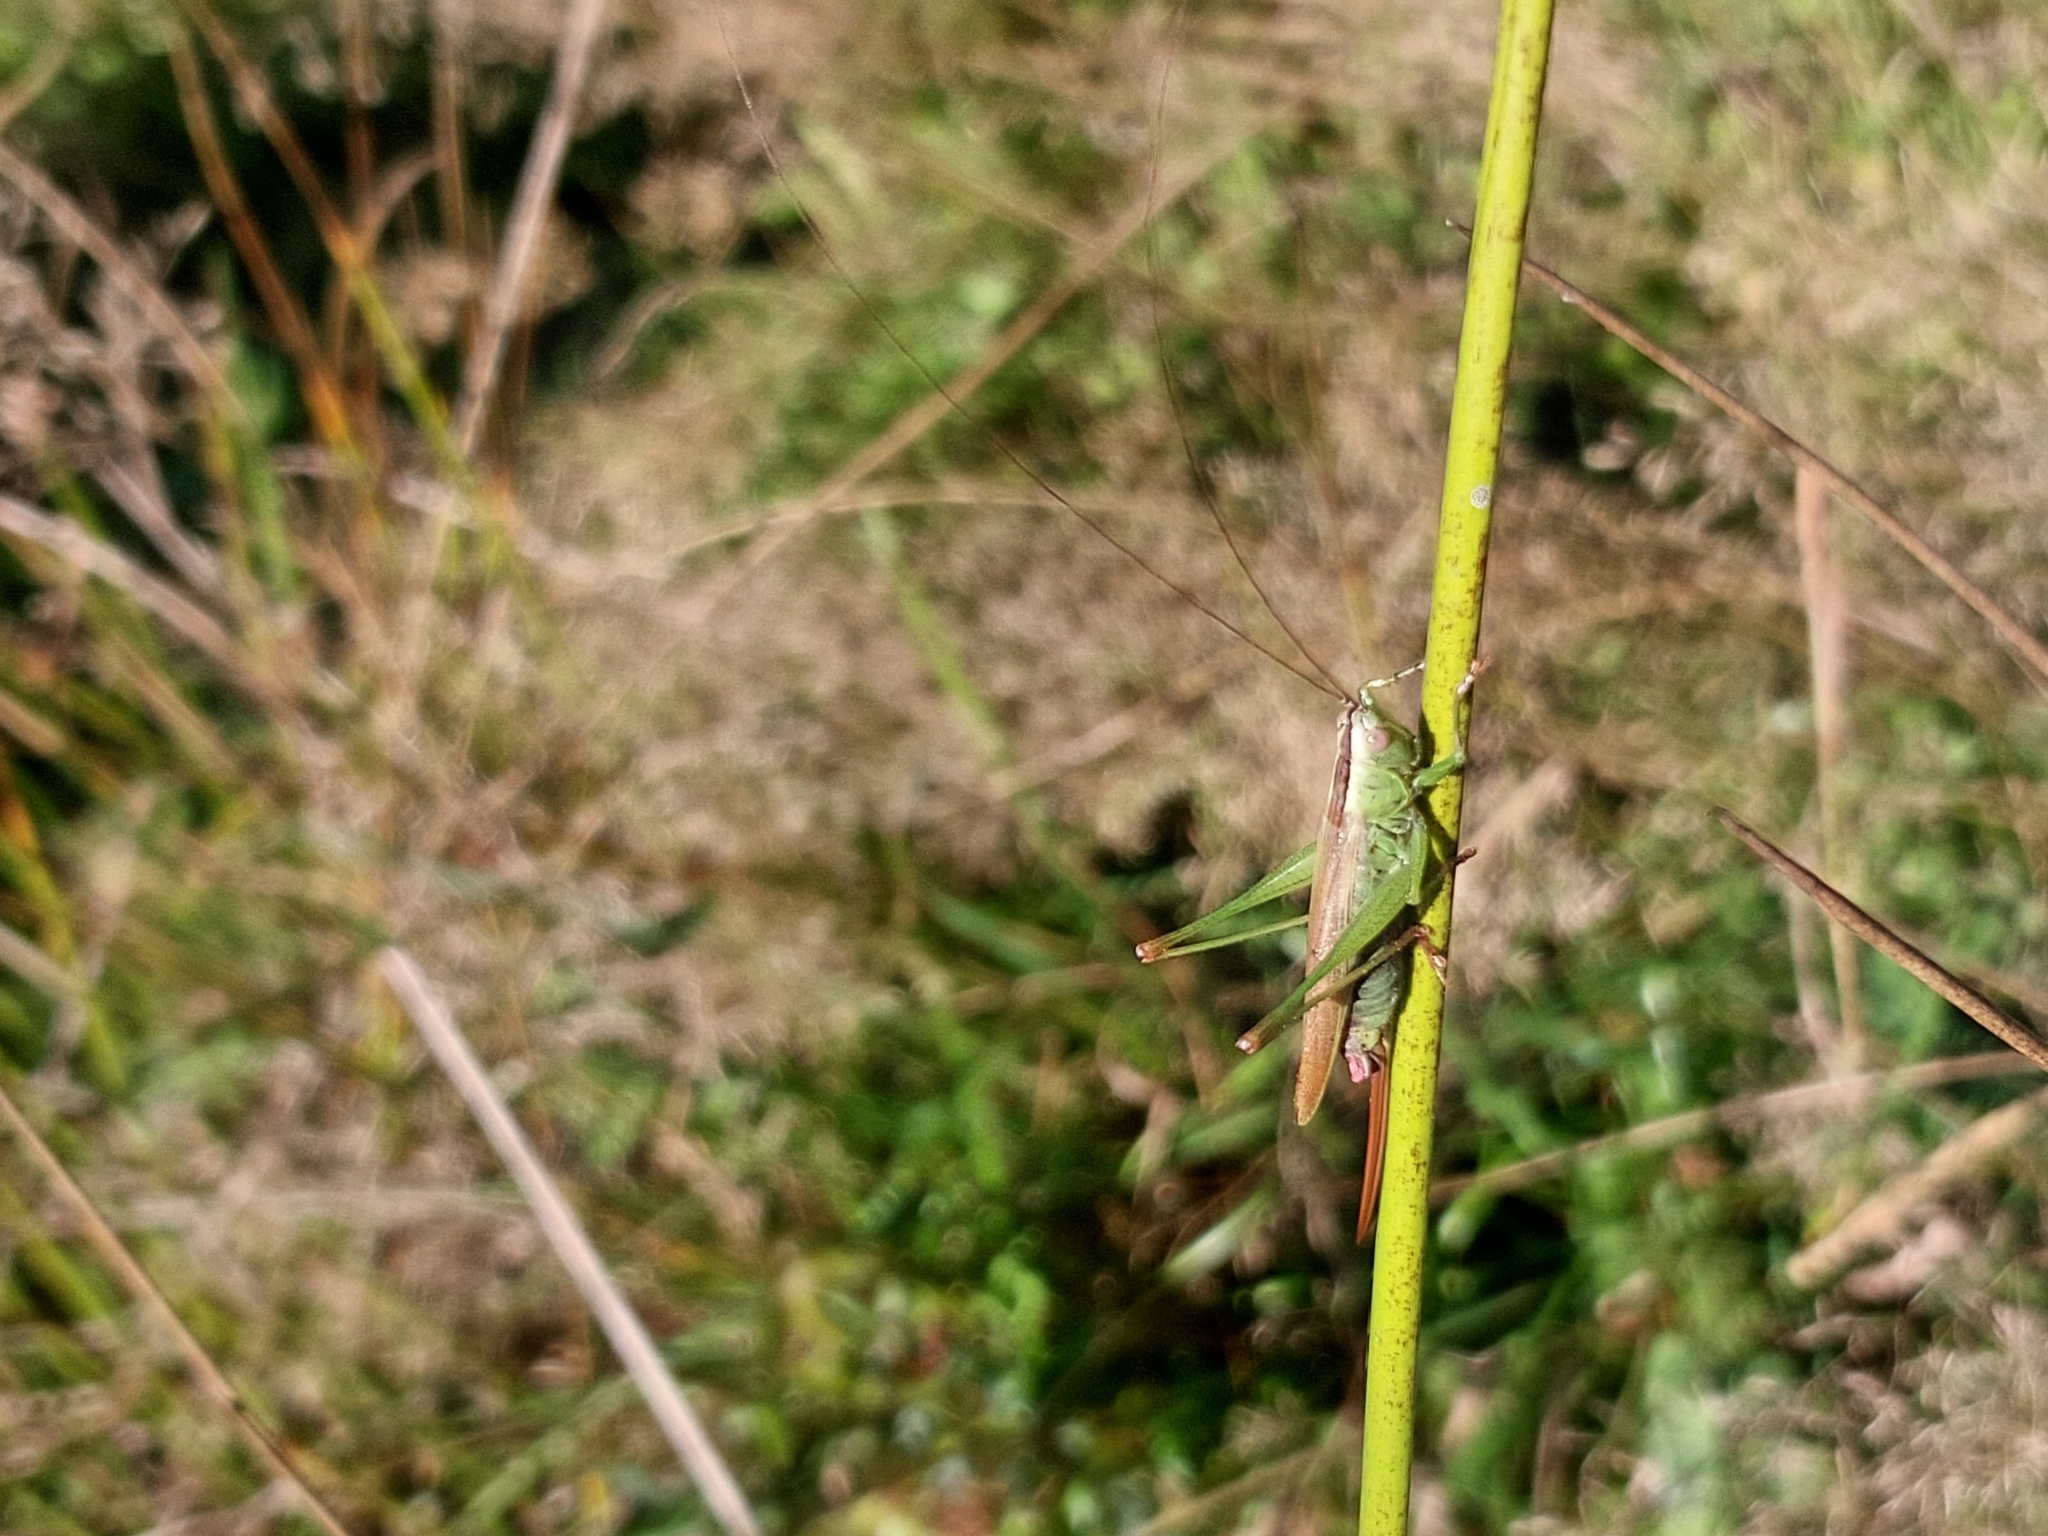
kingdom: Animalia
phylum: Arthropoda
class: Insecta
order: Orthoptera
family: Tettigoniidae
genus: Conocephalus
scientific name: Conocephalus fuscus
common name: Long-winged conehead
